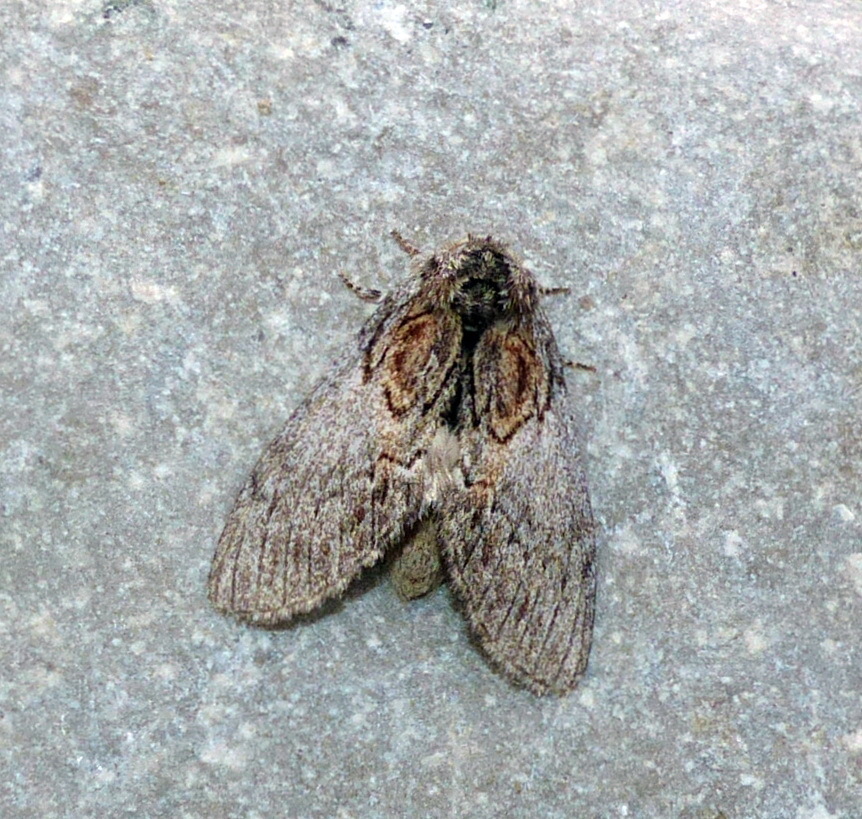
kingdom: Animalia
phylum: Arthropoda
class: Insecta
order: Lepidoptera
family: Notodontidae
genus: Peridea
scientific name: Peridea basitriens
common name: Oval-based prominent
